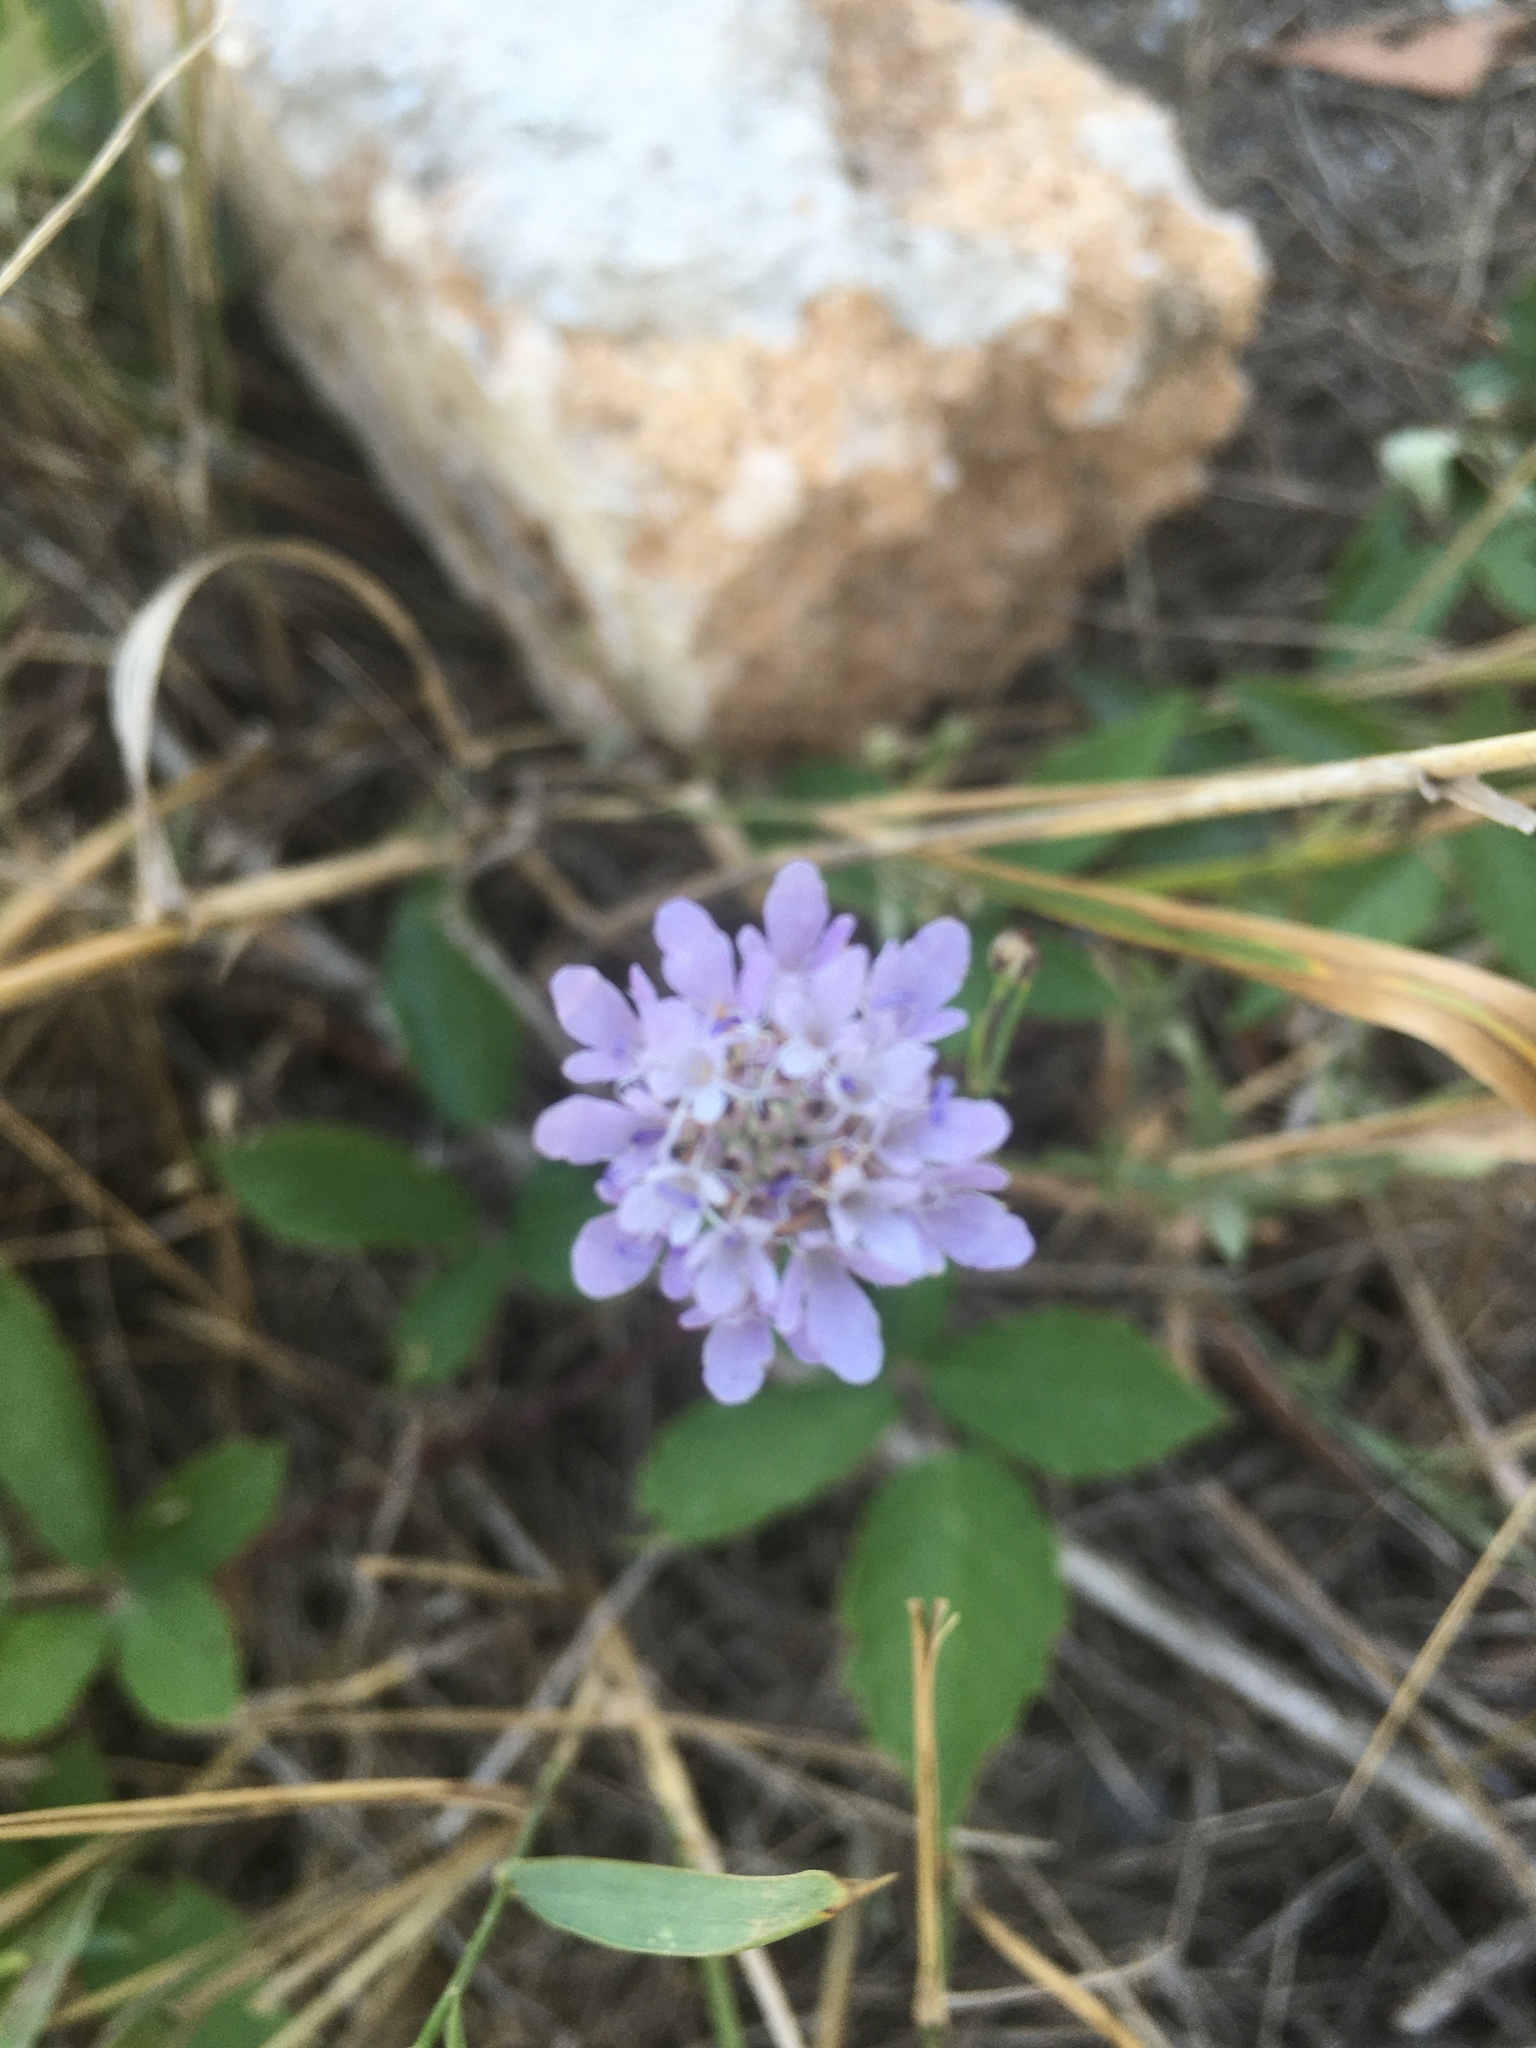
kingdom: Plantae
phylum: Tracheophyta
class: Magnoliopsida
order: Dipsacales
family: Caprifoliaceae
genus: Knautia
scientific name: Knautia arvensis
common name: Field scabiosa
